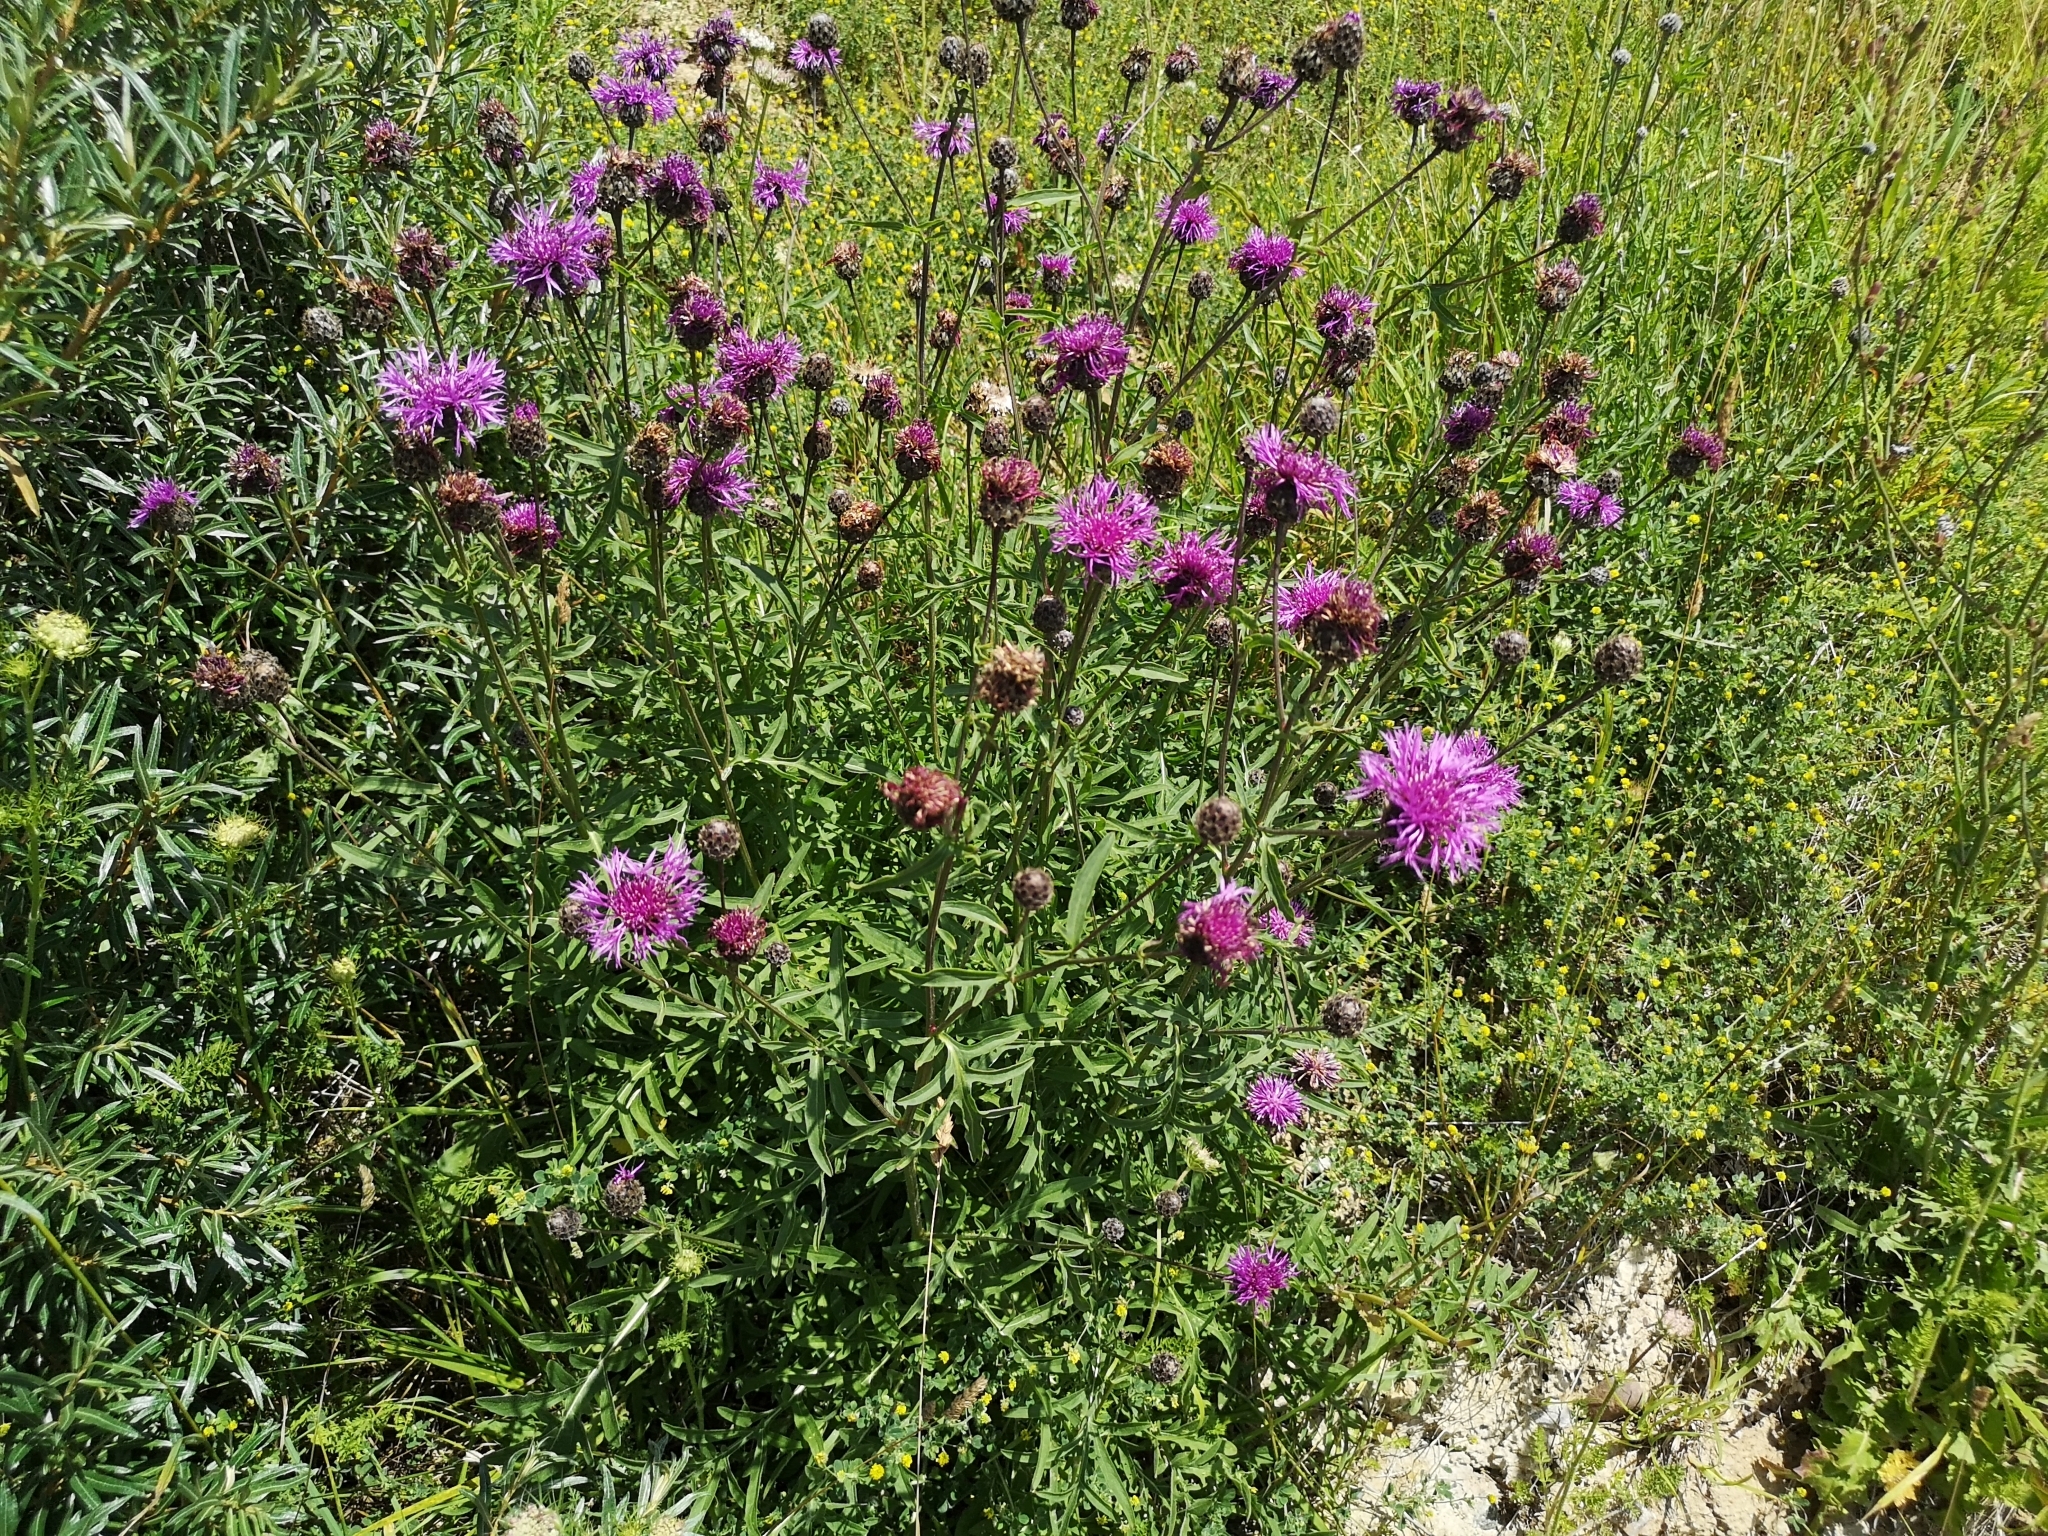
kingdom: Plantae
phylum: Tracheophyta
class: Magnoliopsida
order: Asterales
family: Asteraceae
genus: Centaurea
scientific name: Centaurea scabiosa
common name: Greater knapweed
